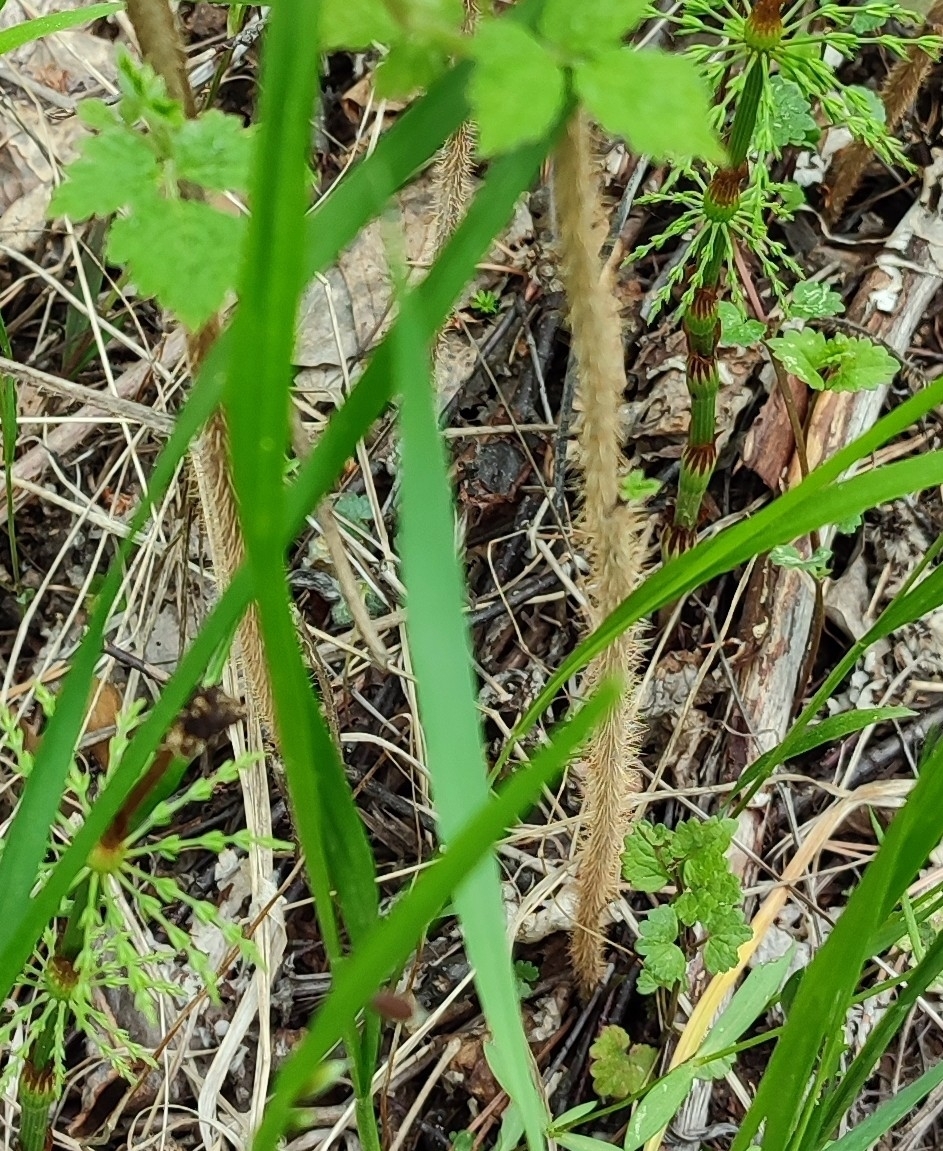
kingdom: Plantae
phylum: Tracheophyta
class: Magnoliopsida
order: Rosales
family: Rosaceae
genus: Rubus
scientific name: Rubus idaeus
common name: Raspberry
